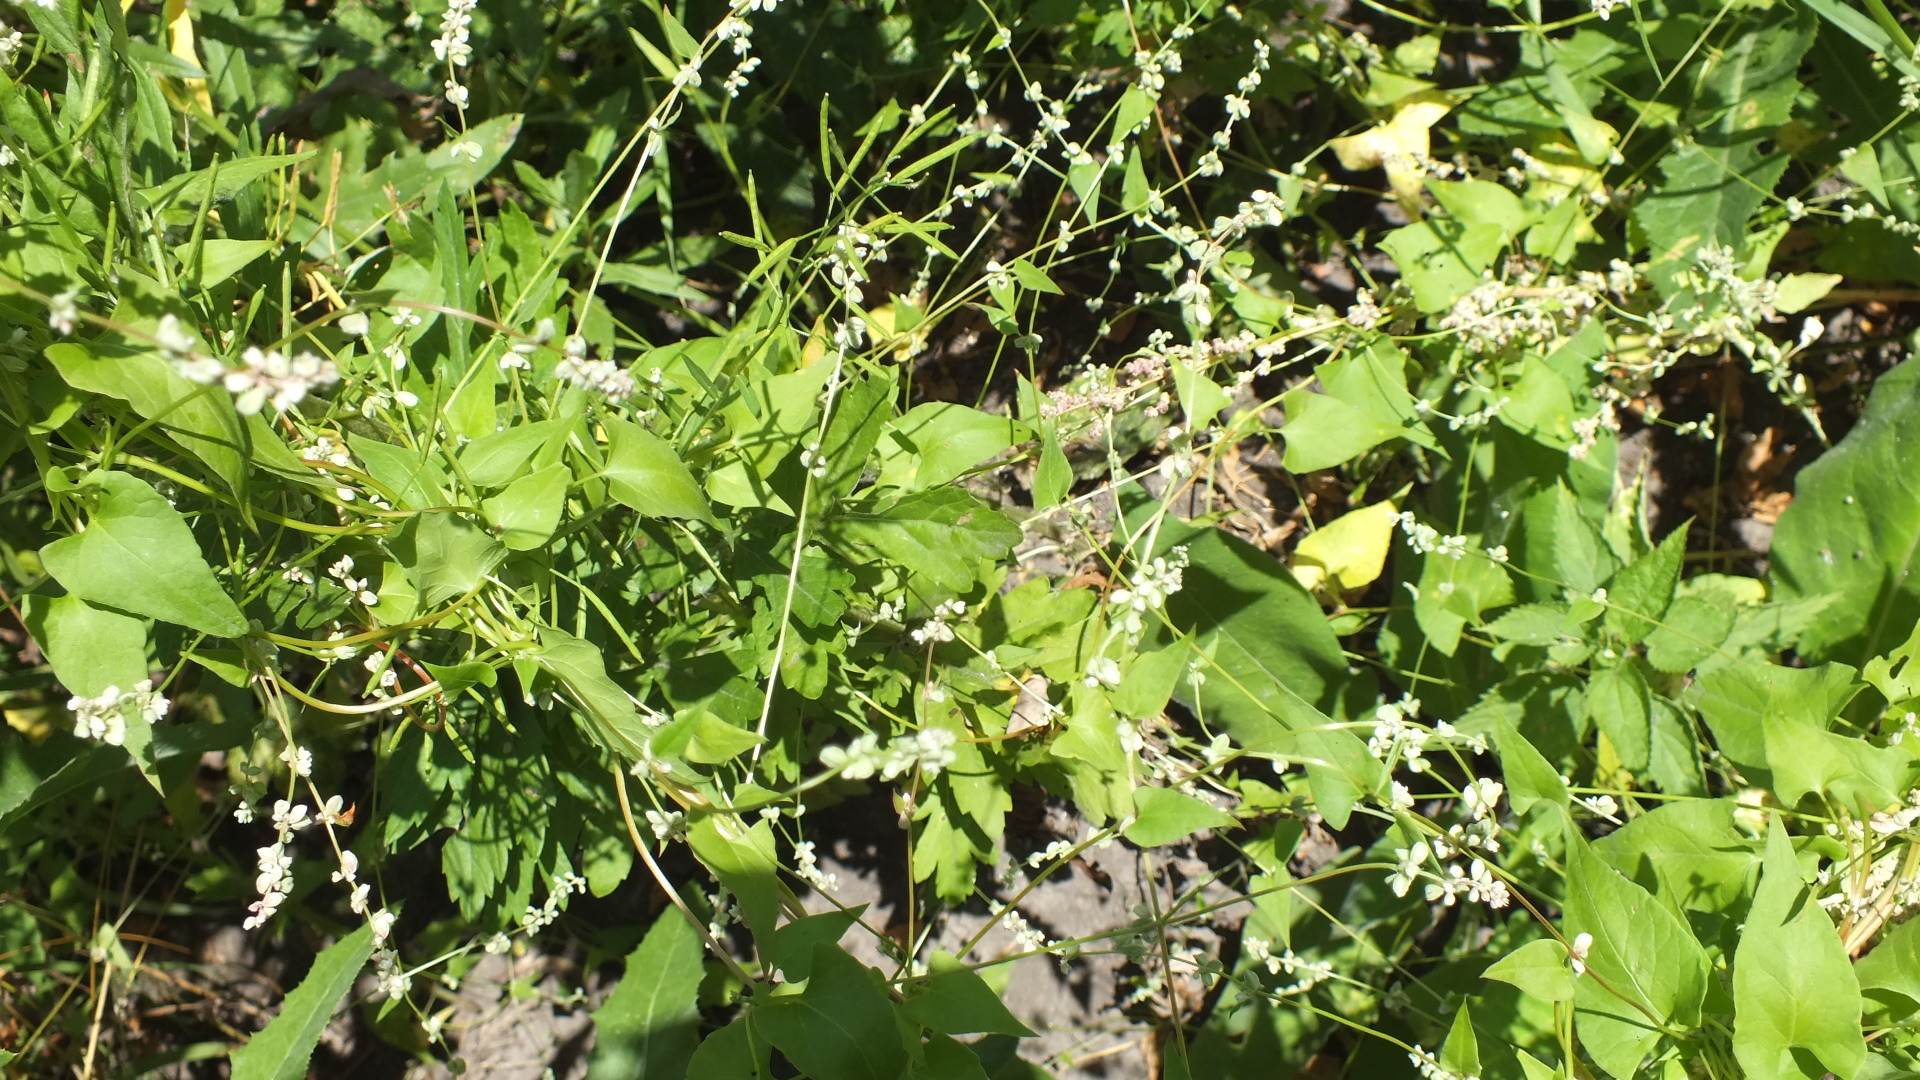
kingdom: Plantae
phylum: Tracheophyta
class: Magnoliopsida
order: Caryophyllales
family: Polygonaceae
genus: Fallopia
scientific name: Fallopia convolvulus
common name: Black bindweed
